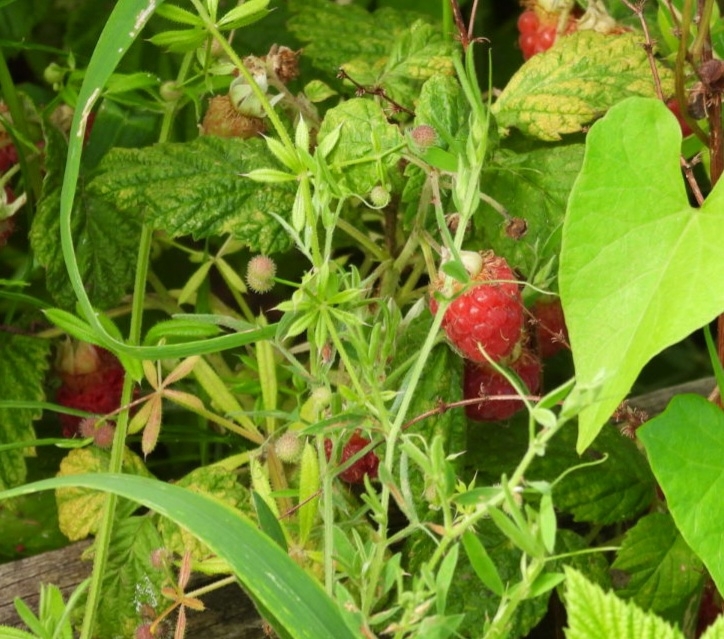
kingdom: Plantae
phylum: Tracheophyta
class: Magnoliopsida
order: Rosales
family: Rosaceae
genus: Rubus
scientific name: Rubus idaeus
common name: Raspberry
